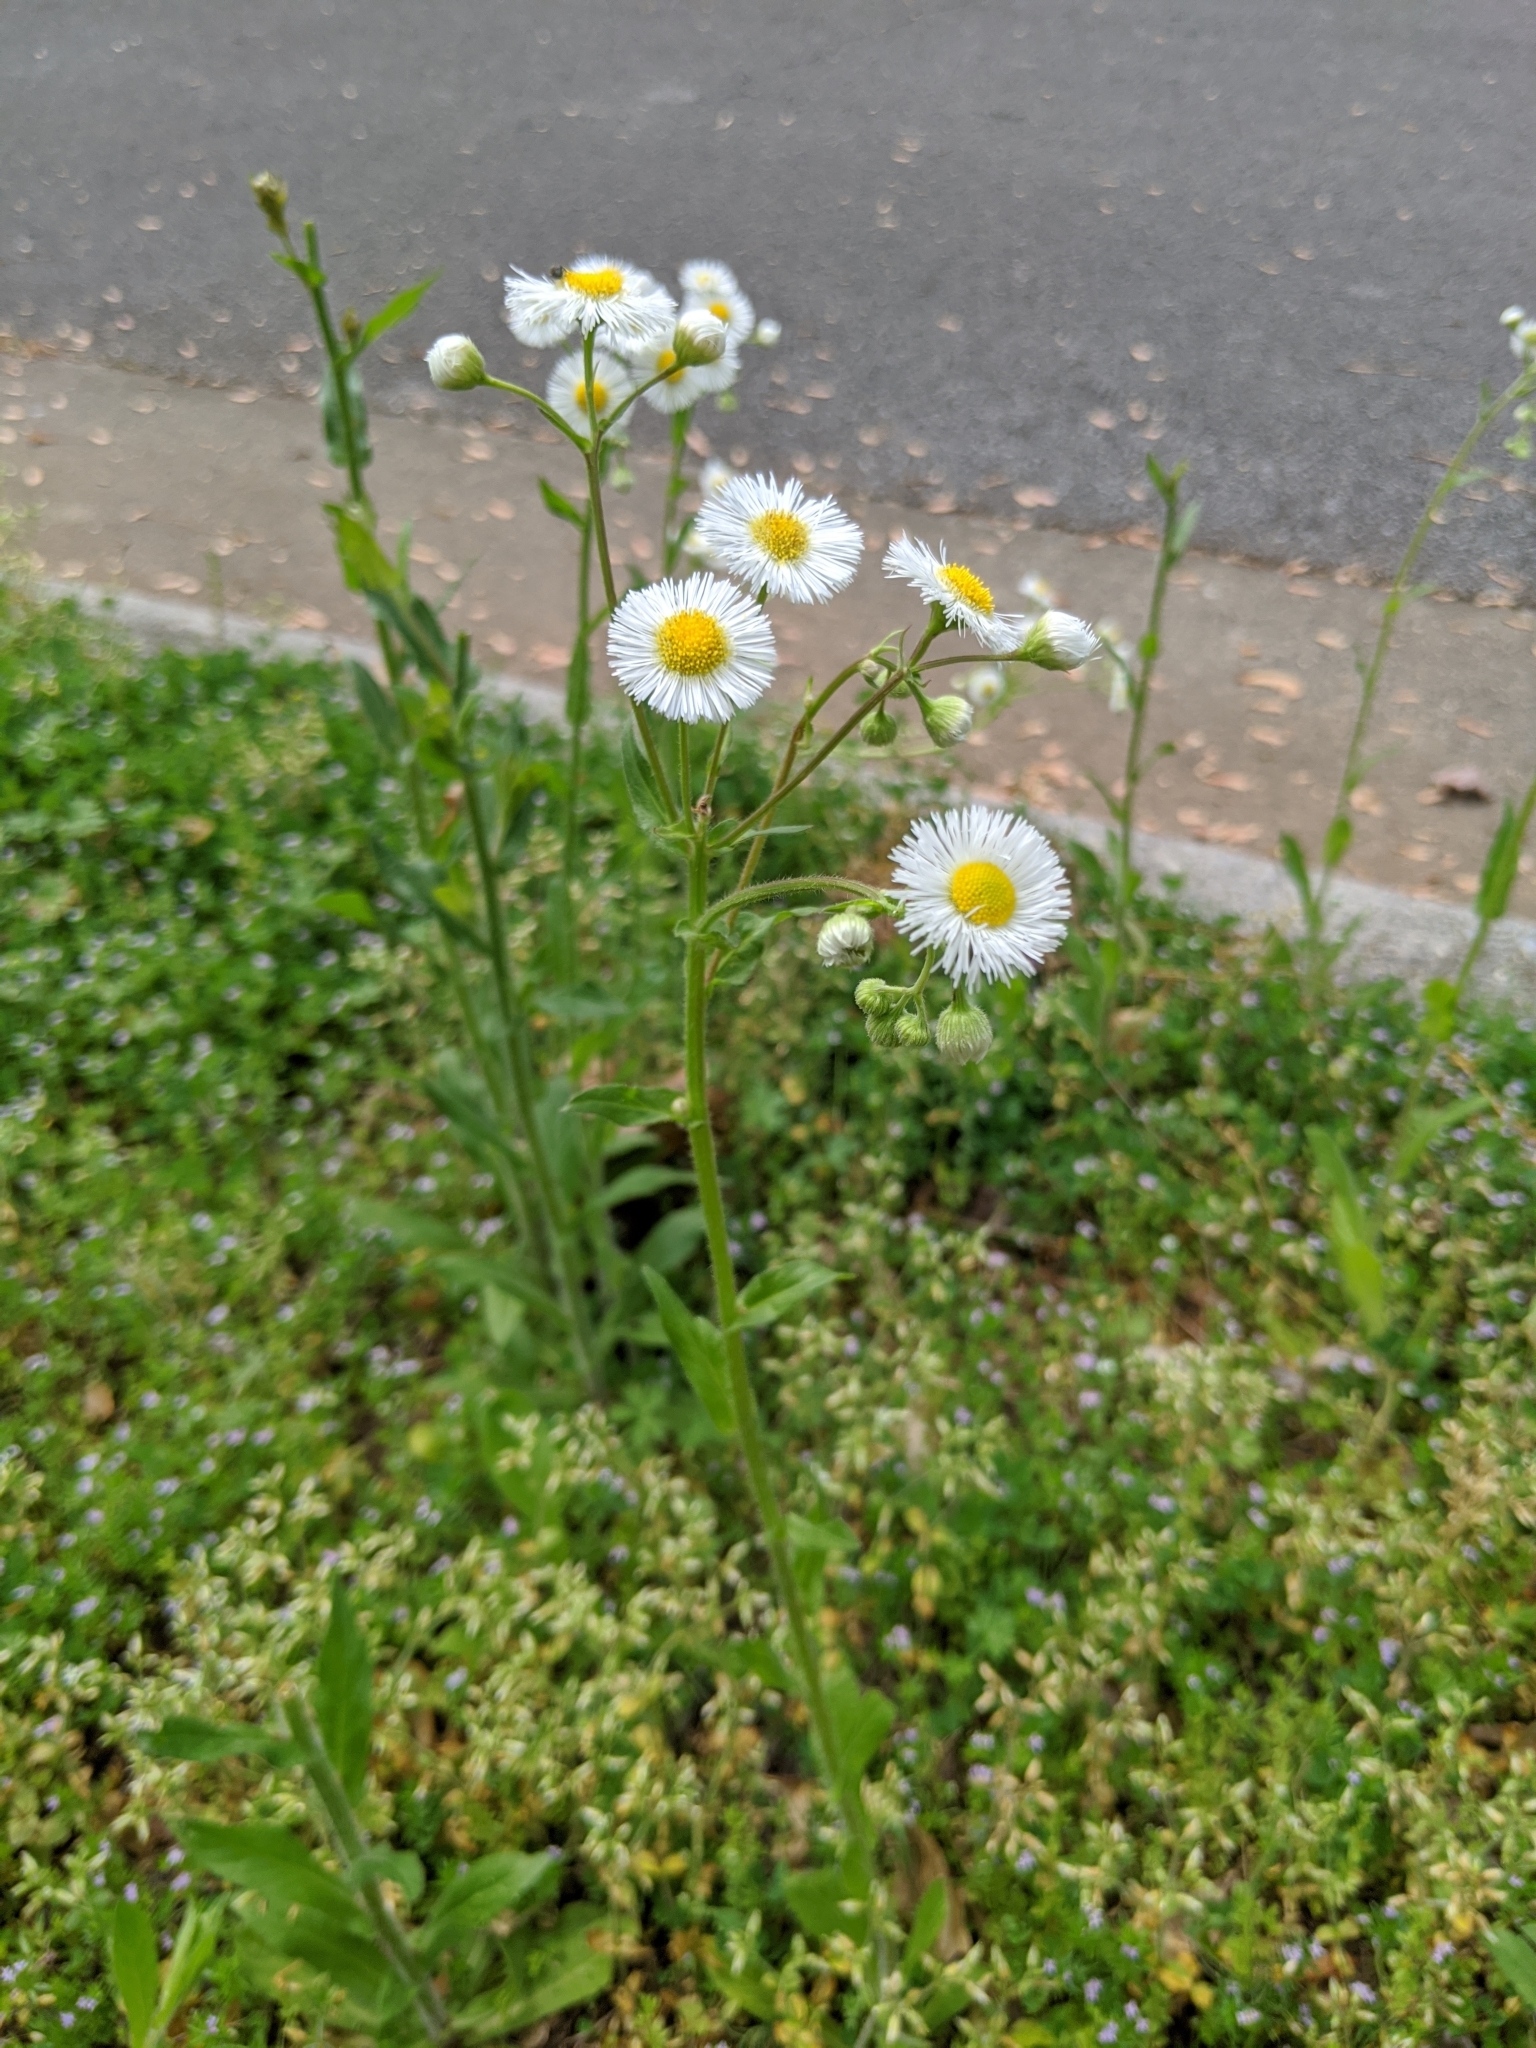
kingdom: Plantae
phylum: Tracheophyta
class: Magnoliopsida
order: Asterales
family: Asteraceae
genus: Erigeron
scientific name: Erigeron philadelphicus
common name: Robin's-plantain
